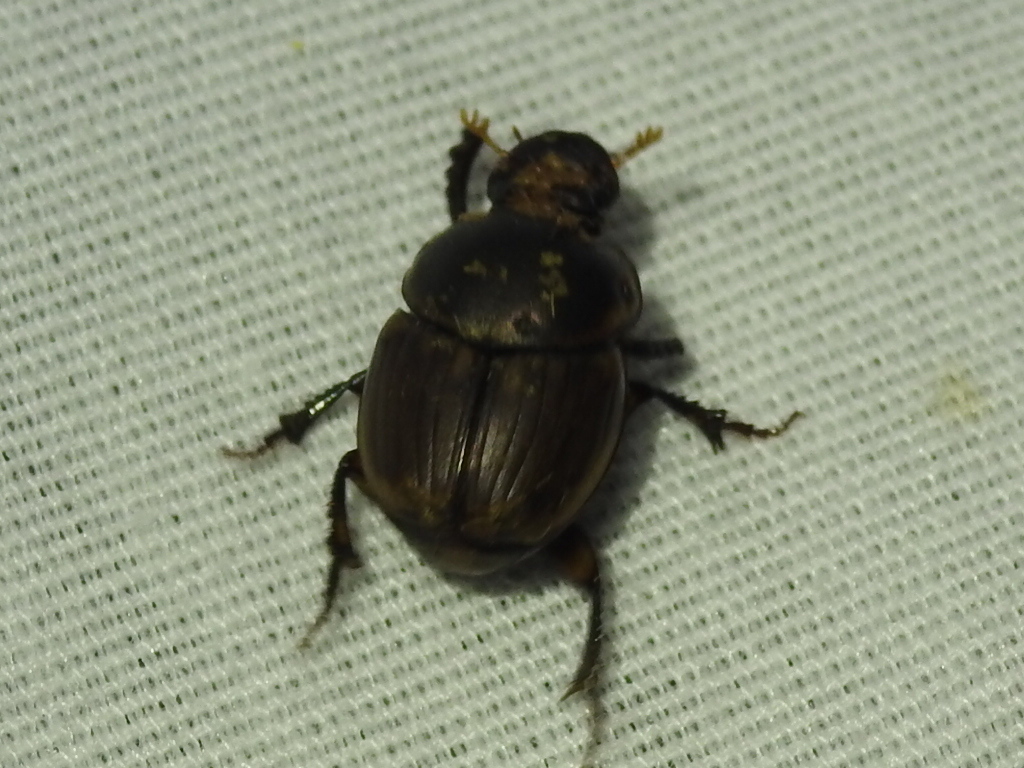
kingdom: Animalia
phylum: Arthropoda
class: Insecta
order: Coleoptera
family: Scarabaeidae
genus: Digitonthophagus
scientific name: Digitonthophagus gazella
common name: Brown dung beetle
